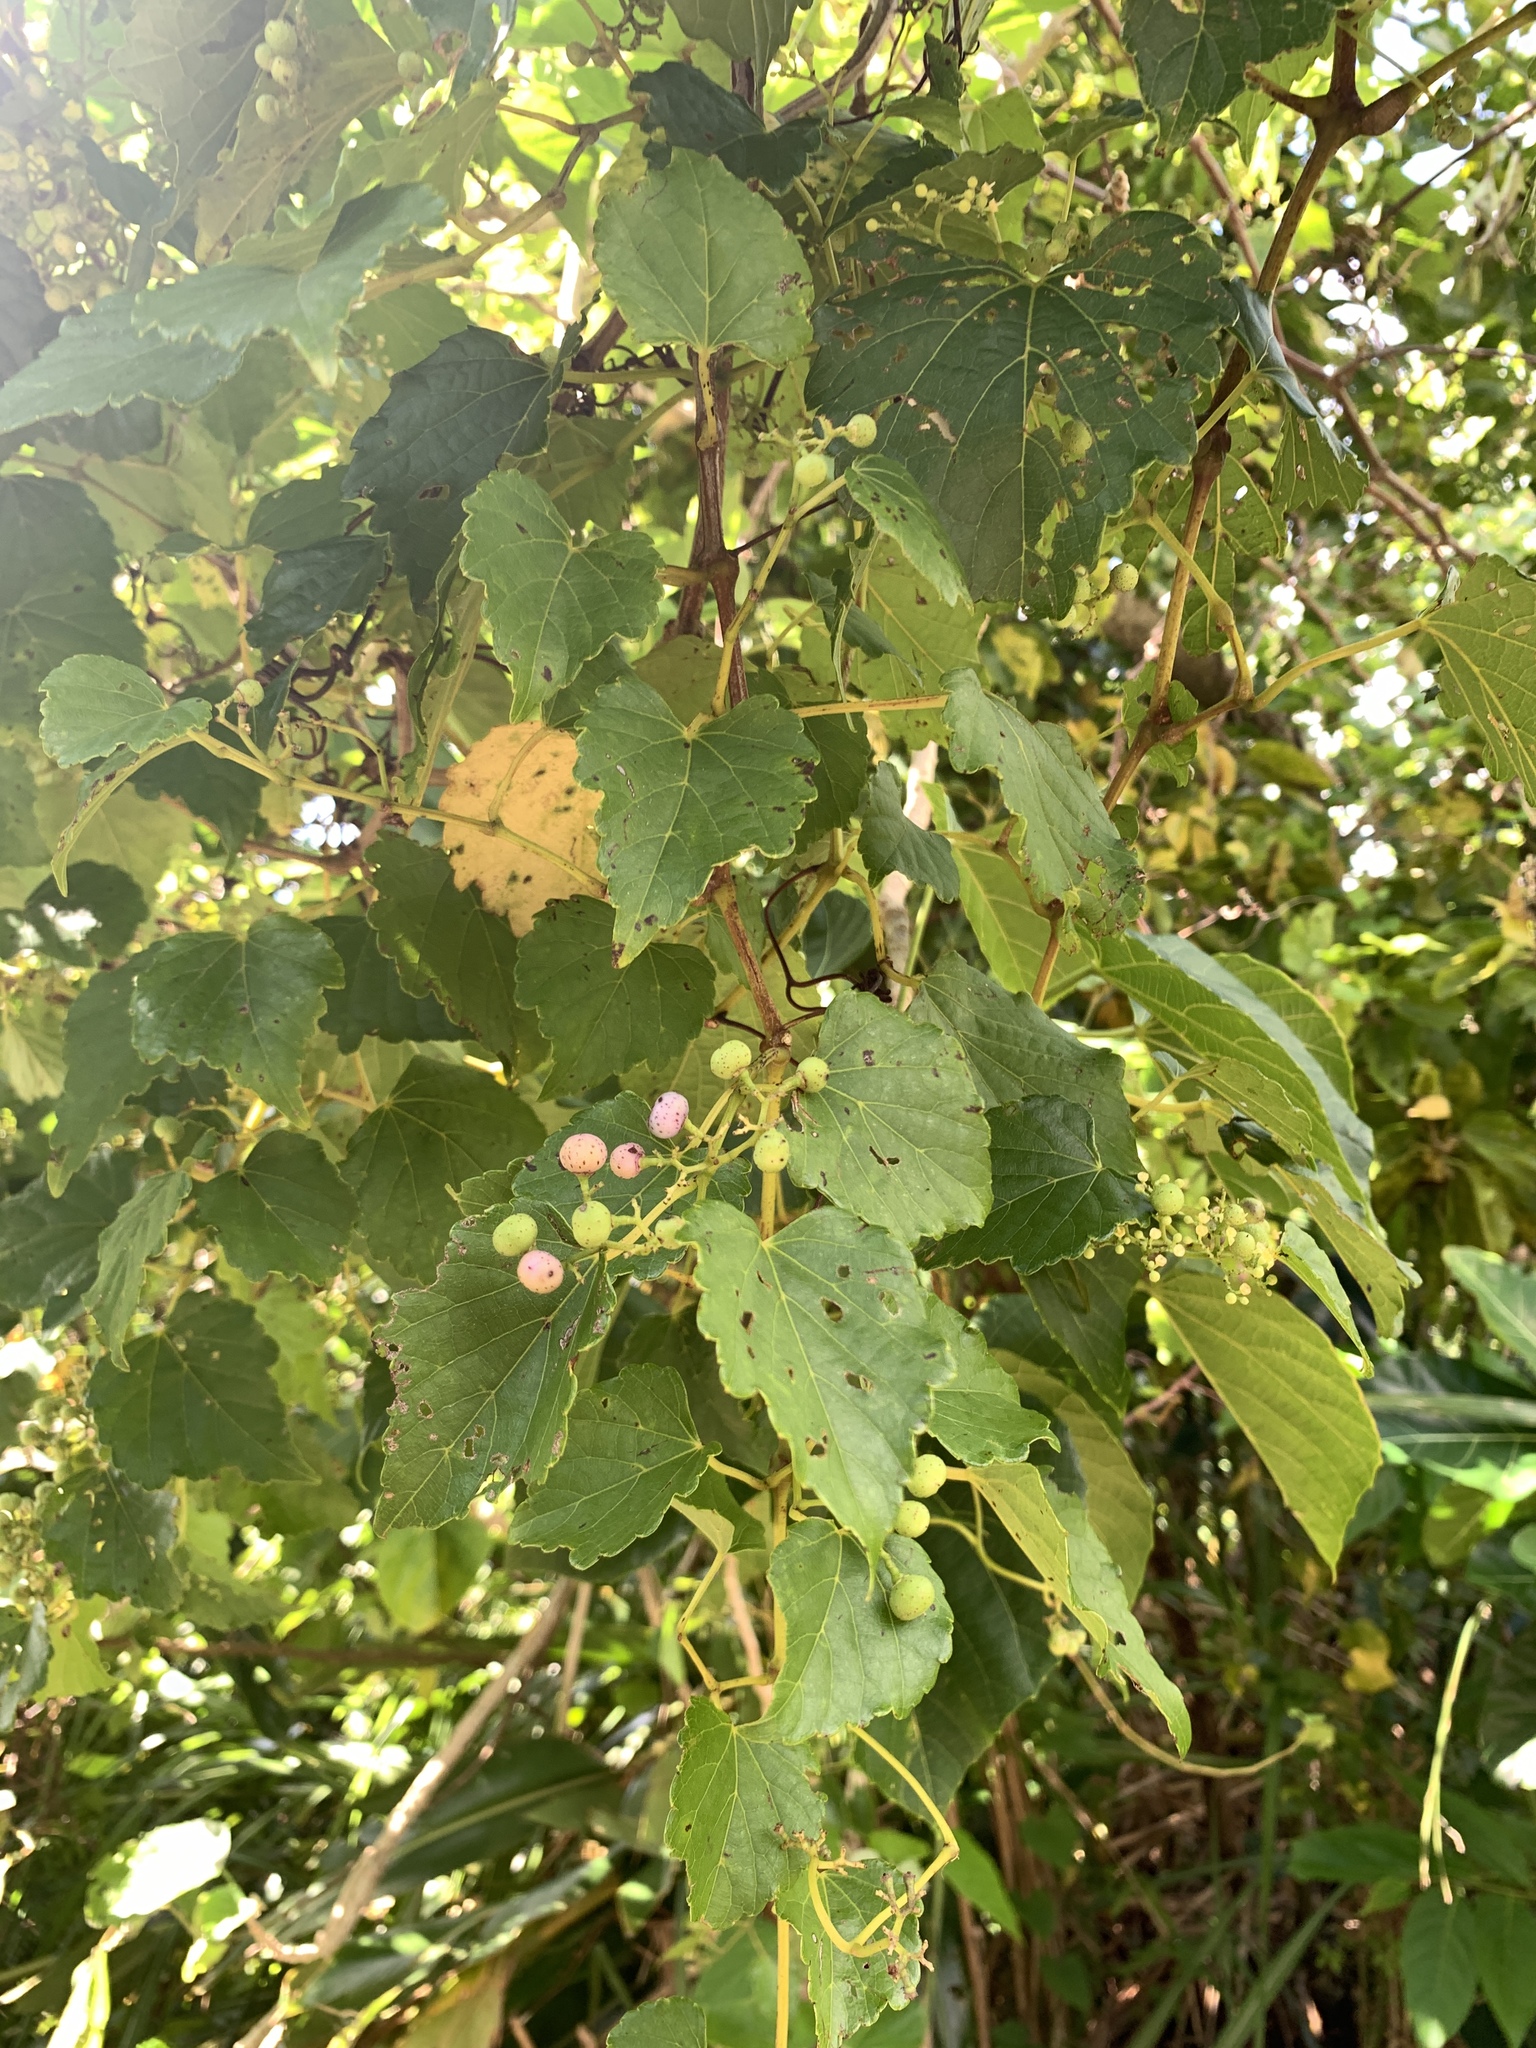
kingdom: Plantae
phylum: Tracheophyta
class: Magnoliopsida
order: Vitales
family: Vitaceae
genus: Ampelopsis
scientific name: Ampelopsis glandulosa
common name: Amur peppervine
